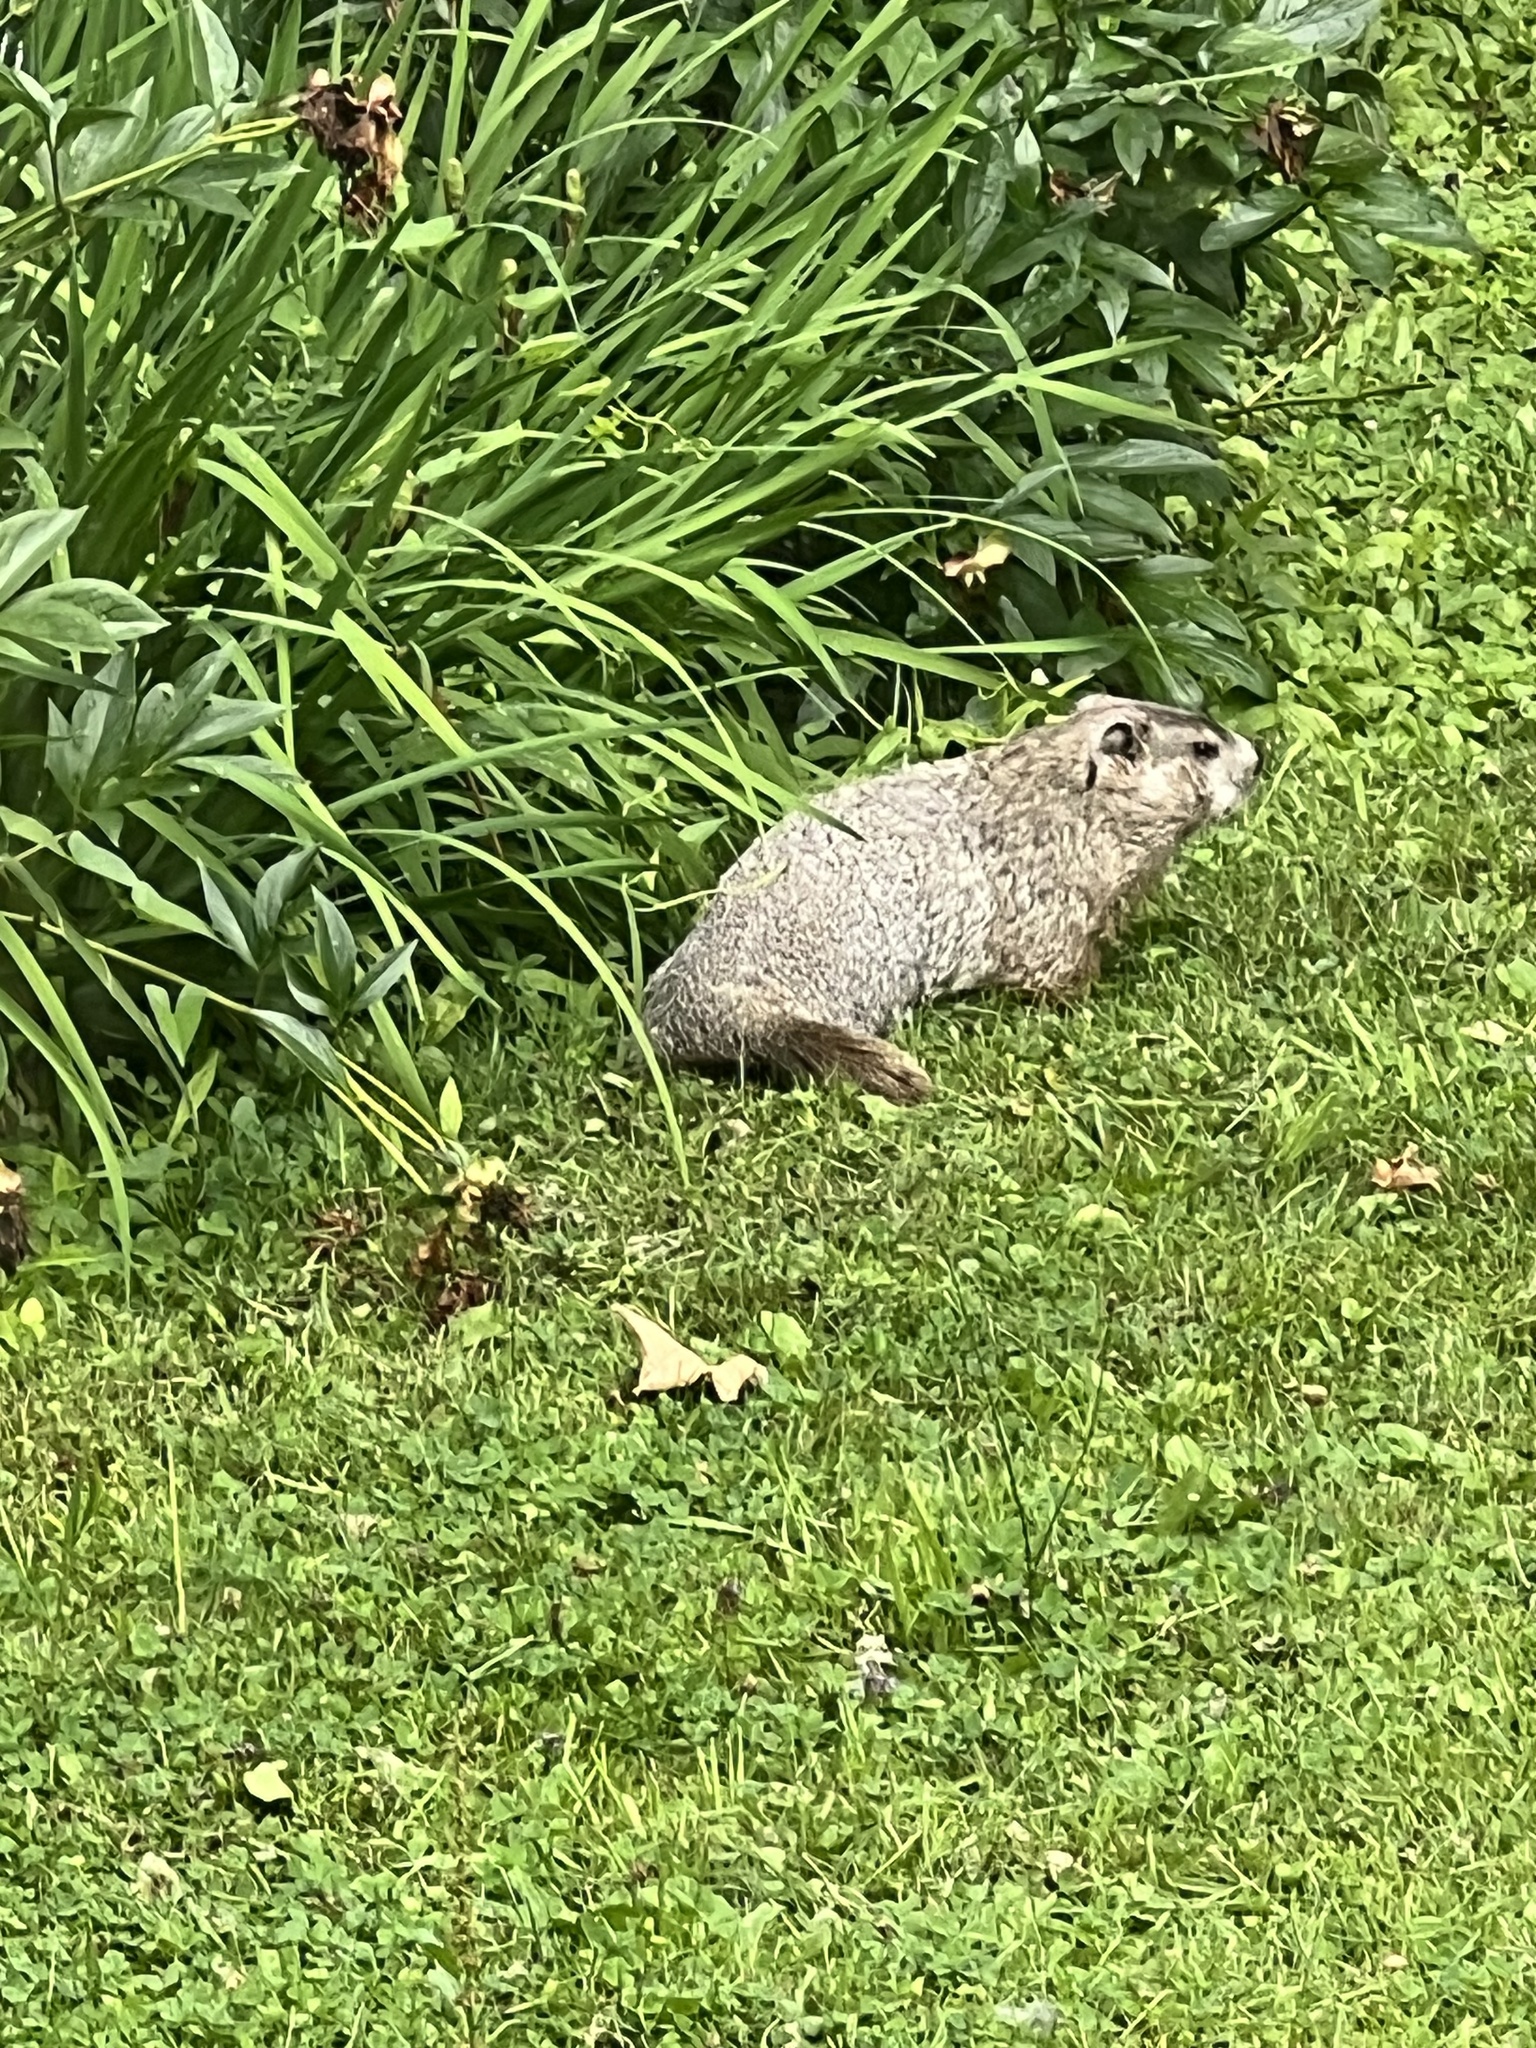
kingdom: Animalia
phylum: Chordata
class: Mammalia
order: Rodentia
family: Sciuridae
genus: Marmota
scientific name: Marmota monax
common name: Groundhog
